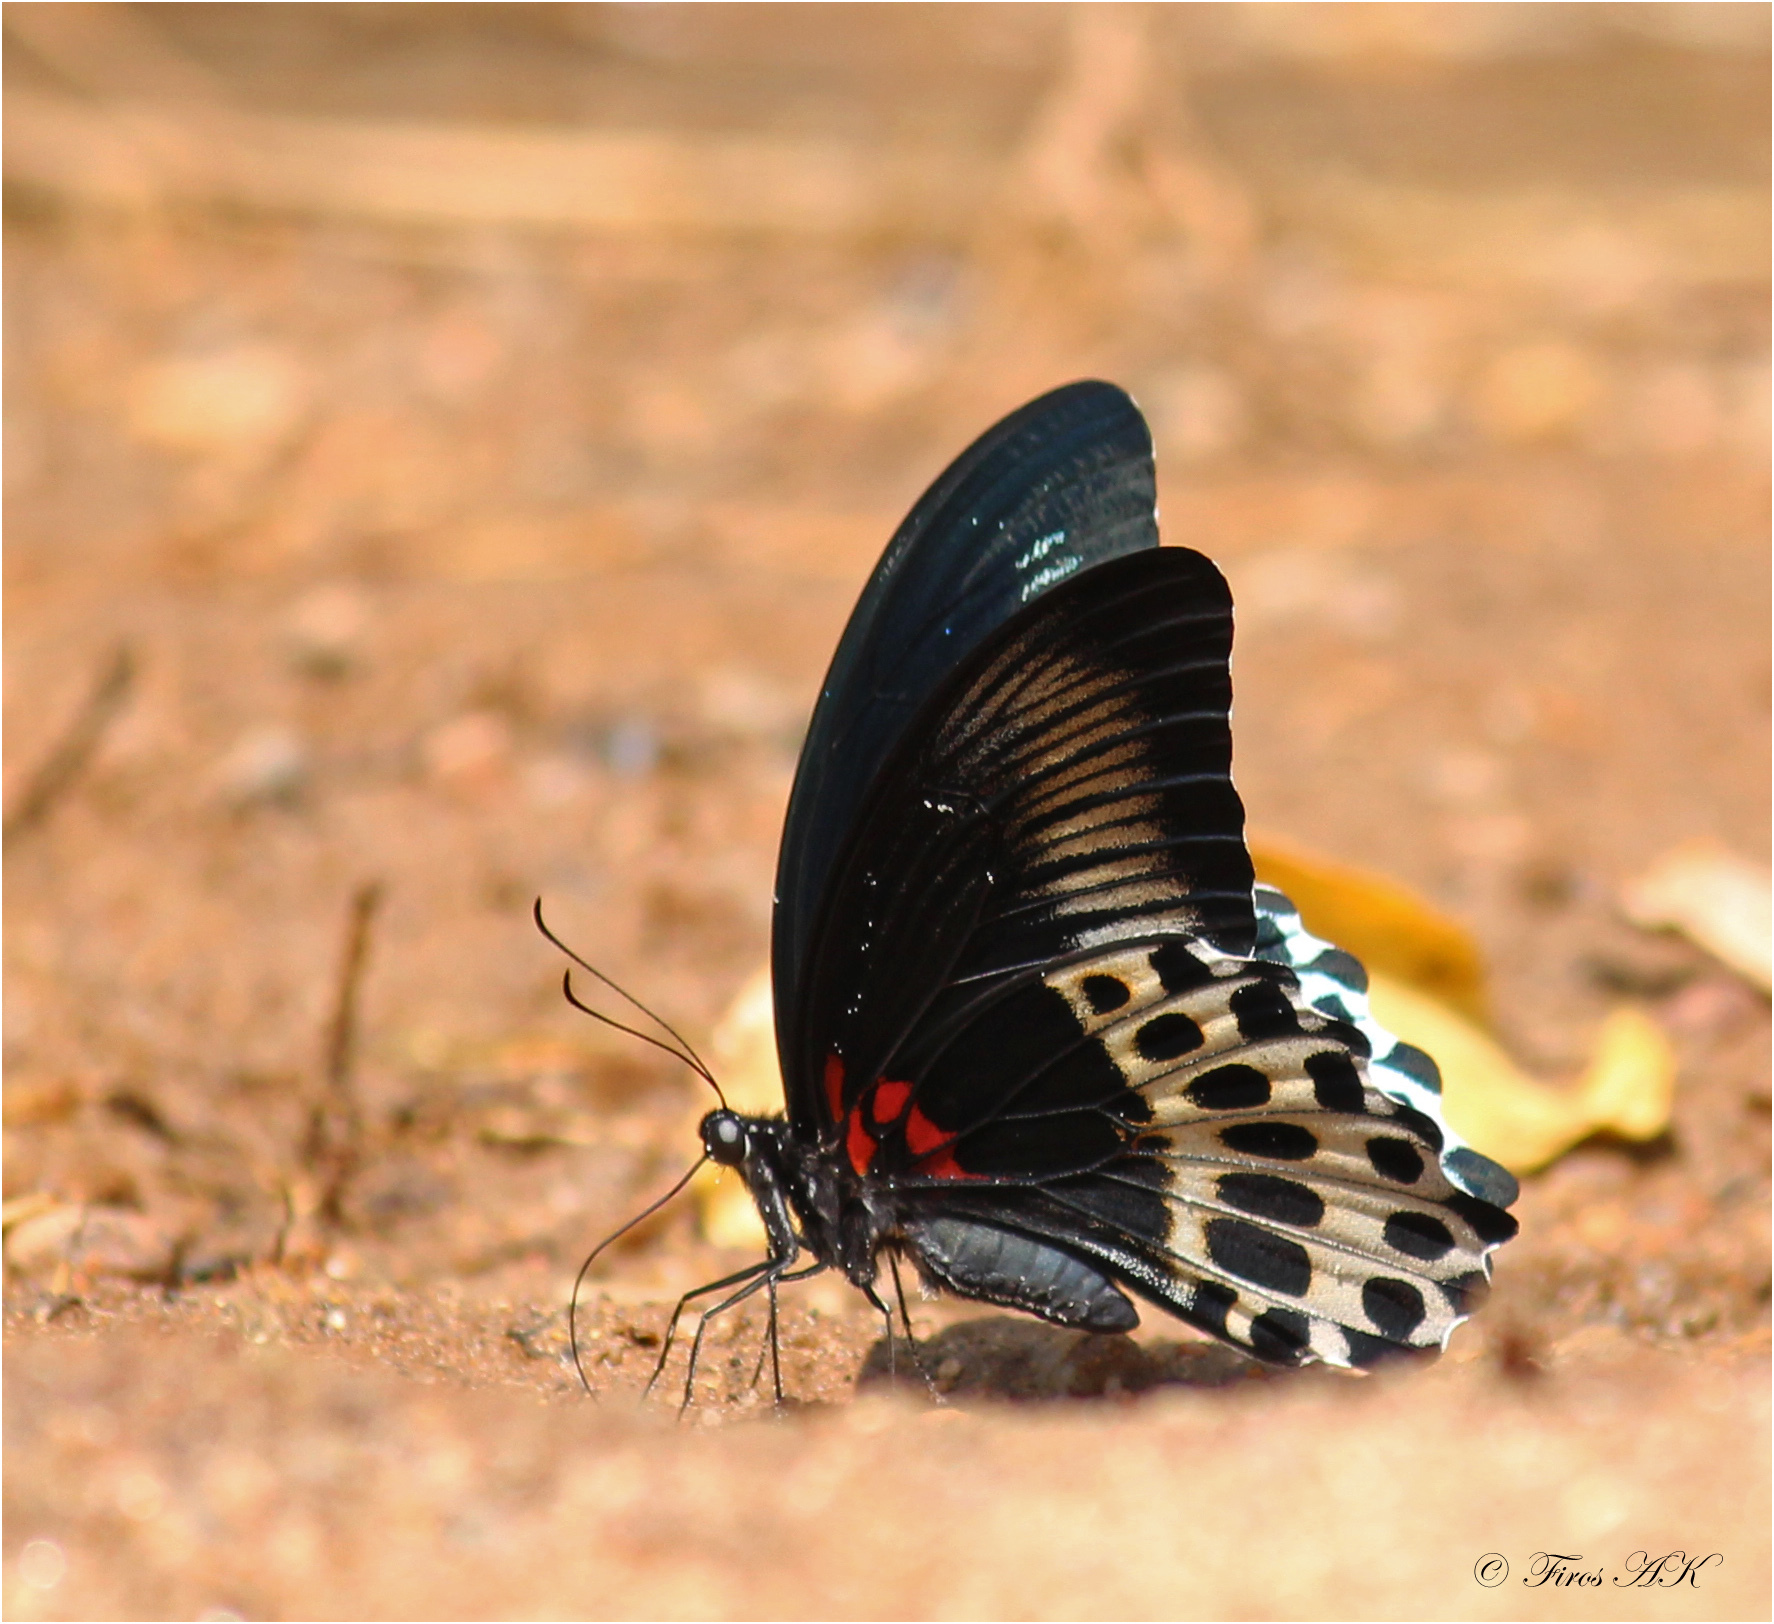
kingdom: Animalia
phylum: Arthropoda
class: Insecta
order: Lepidoptera
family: Papilionidae
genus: Papilio
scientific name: Papilio memnon
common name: Great mormon
